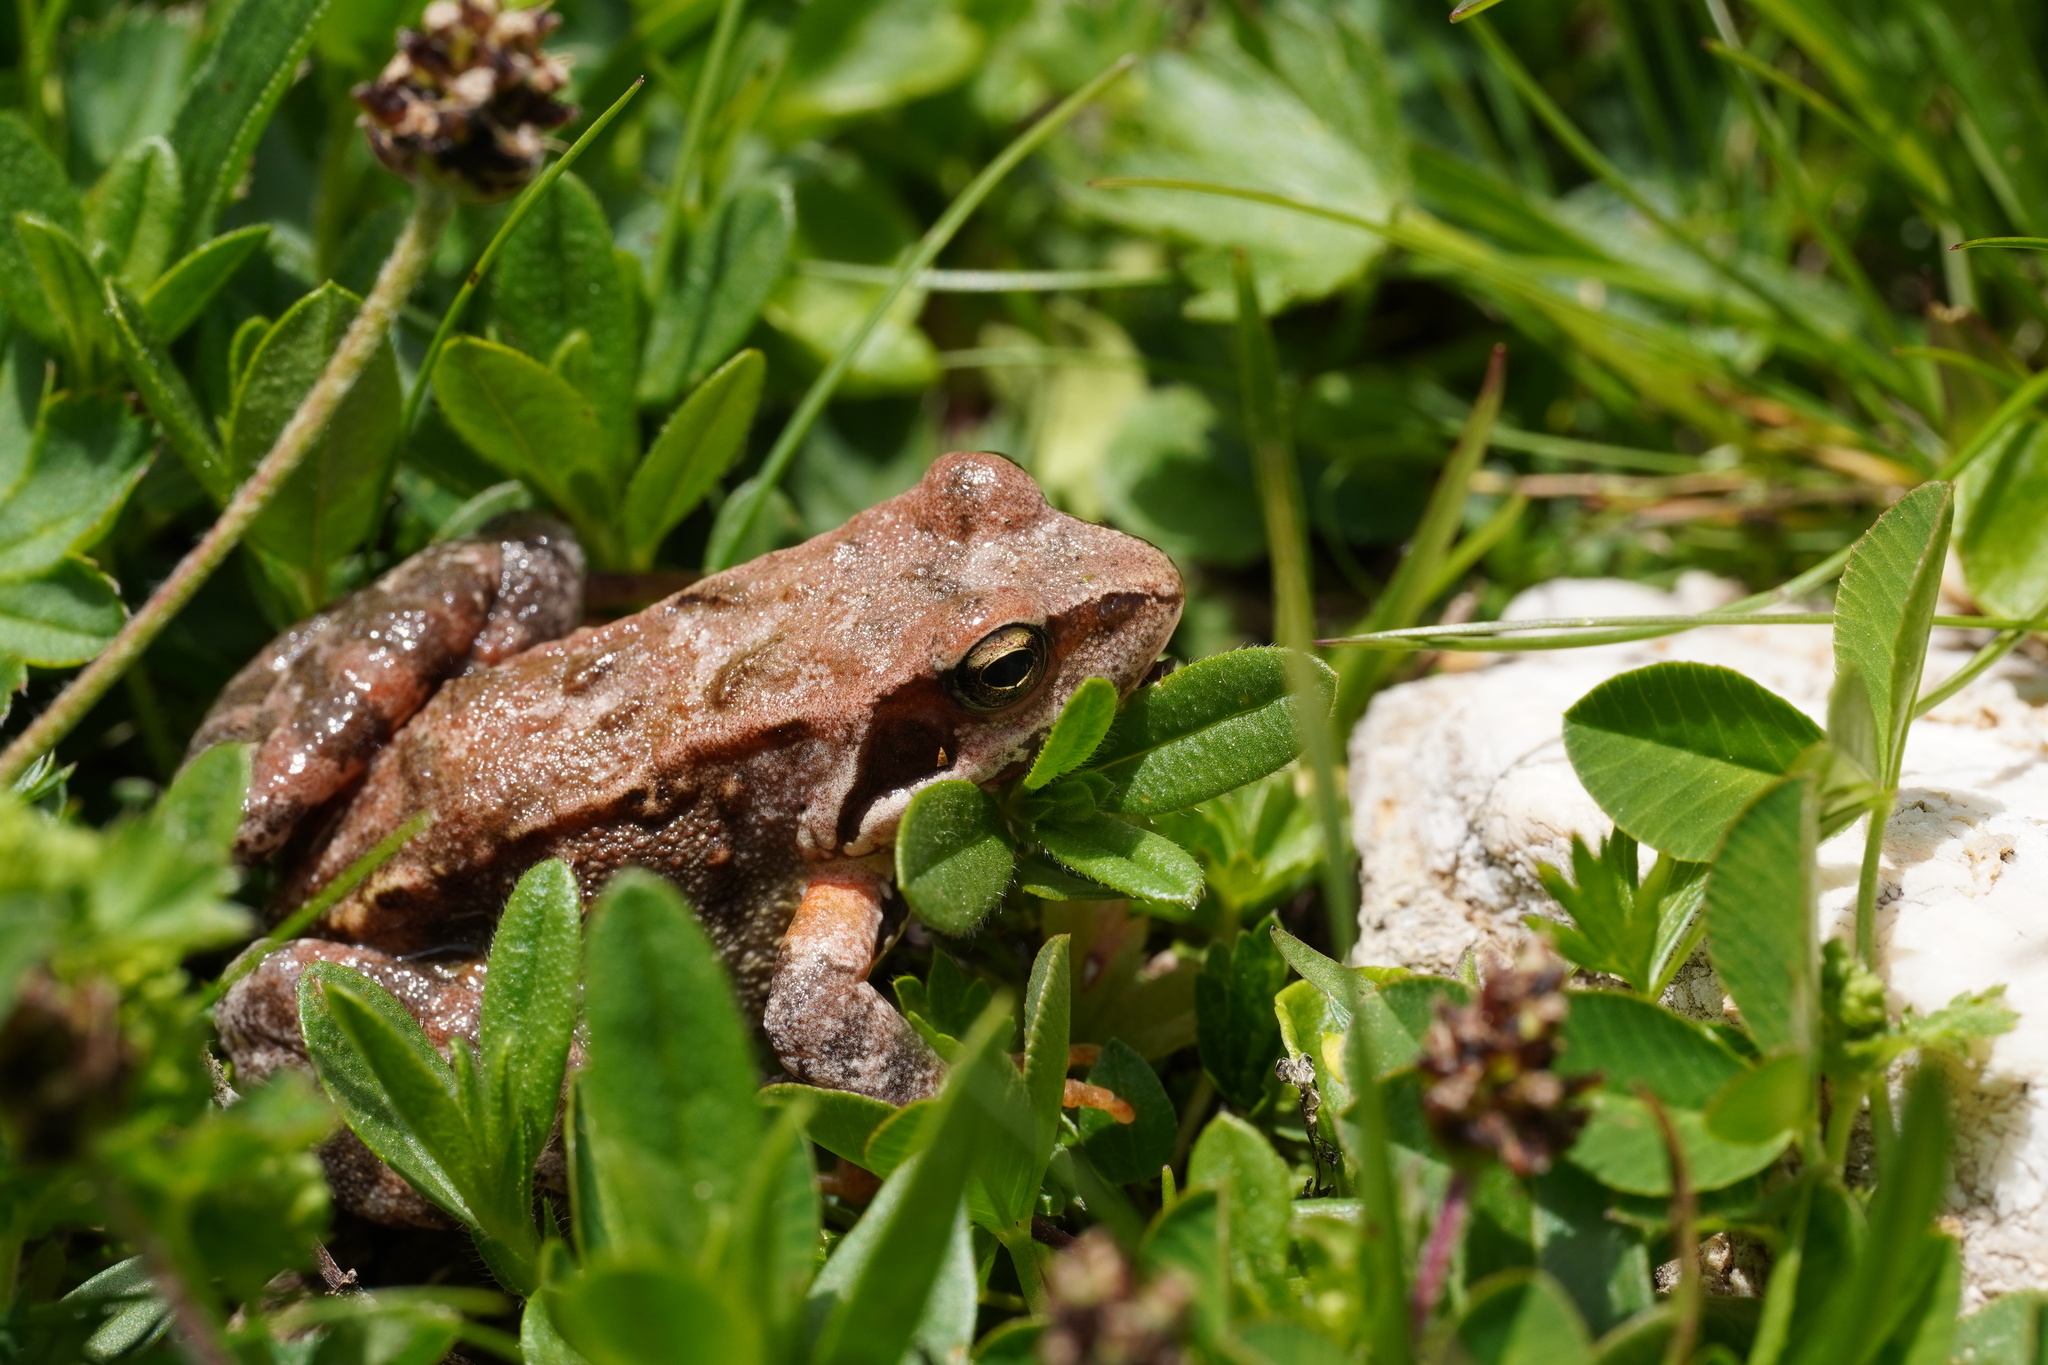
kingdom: Animalia
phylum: Chordata
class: Amphibia
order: Anura
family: Ranidae
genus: Rana
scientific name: Rana temporaria
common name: Common frog
